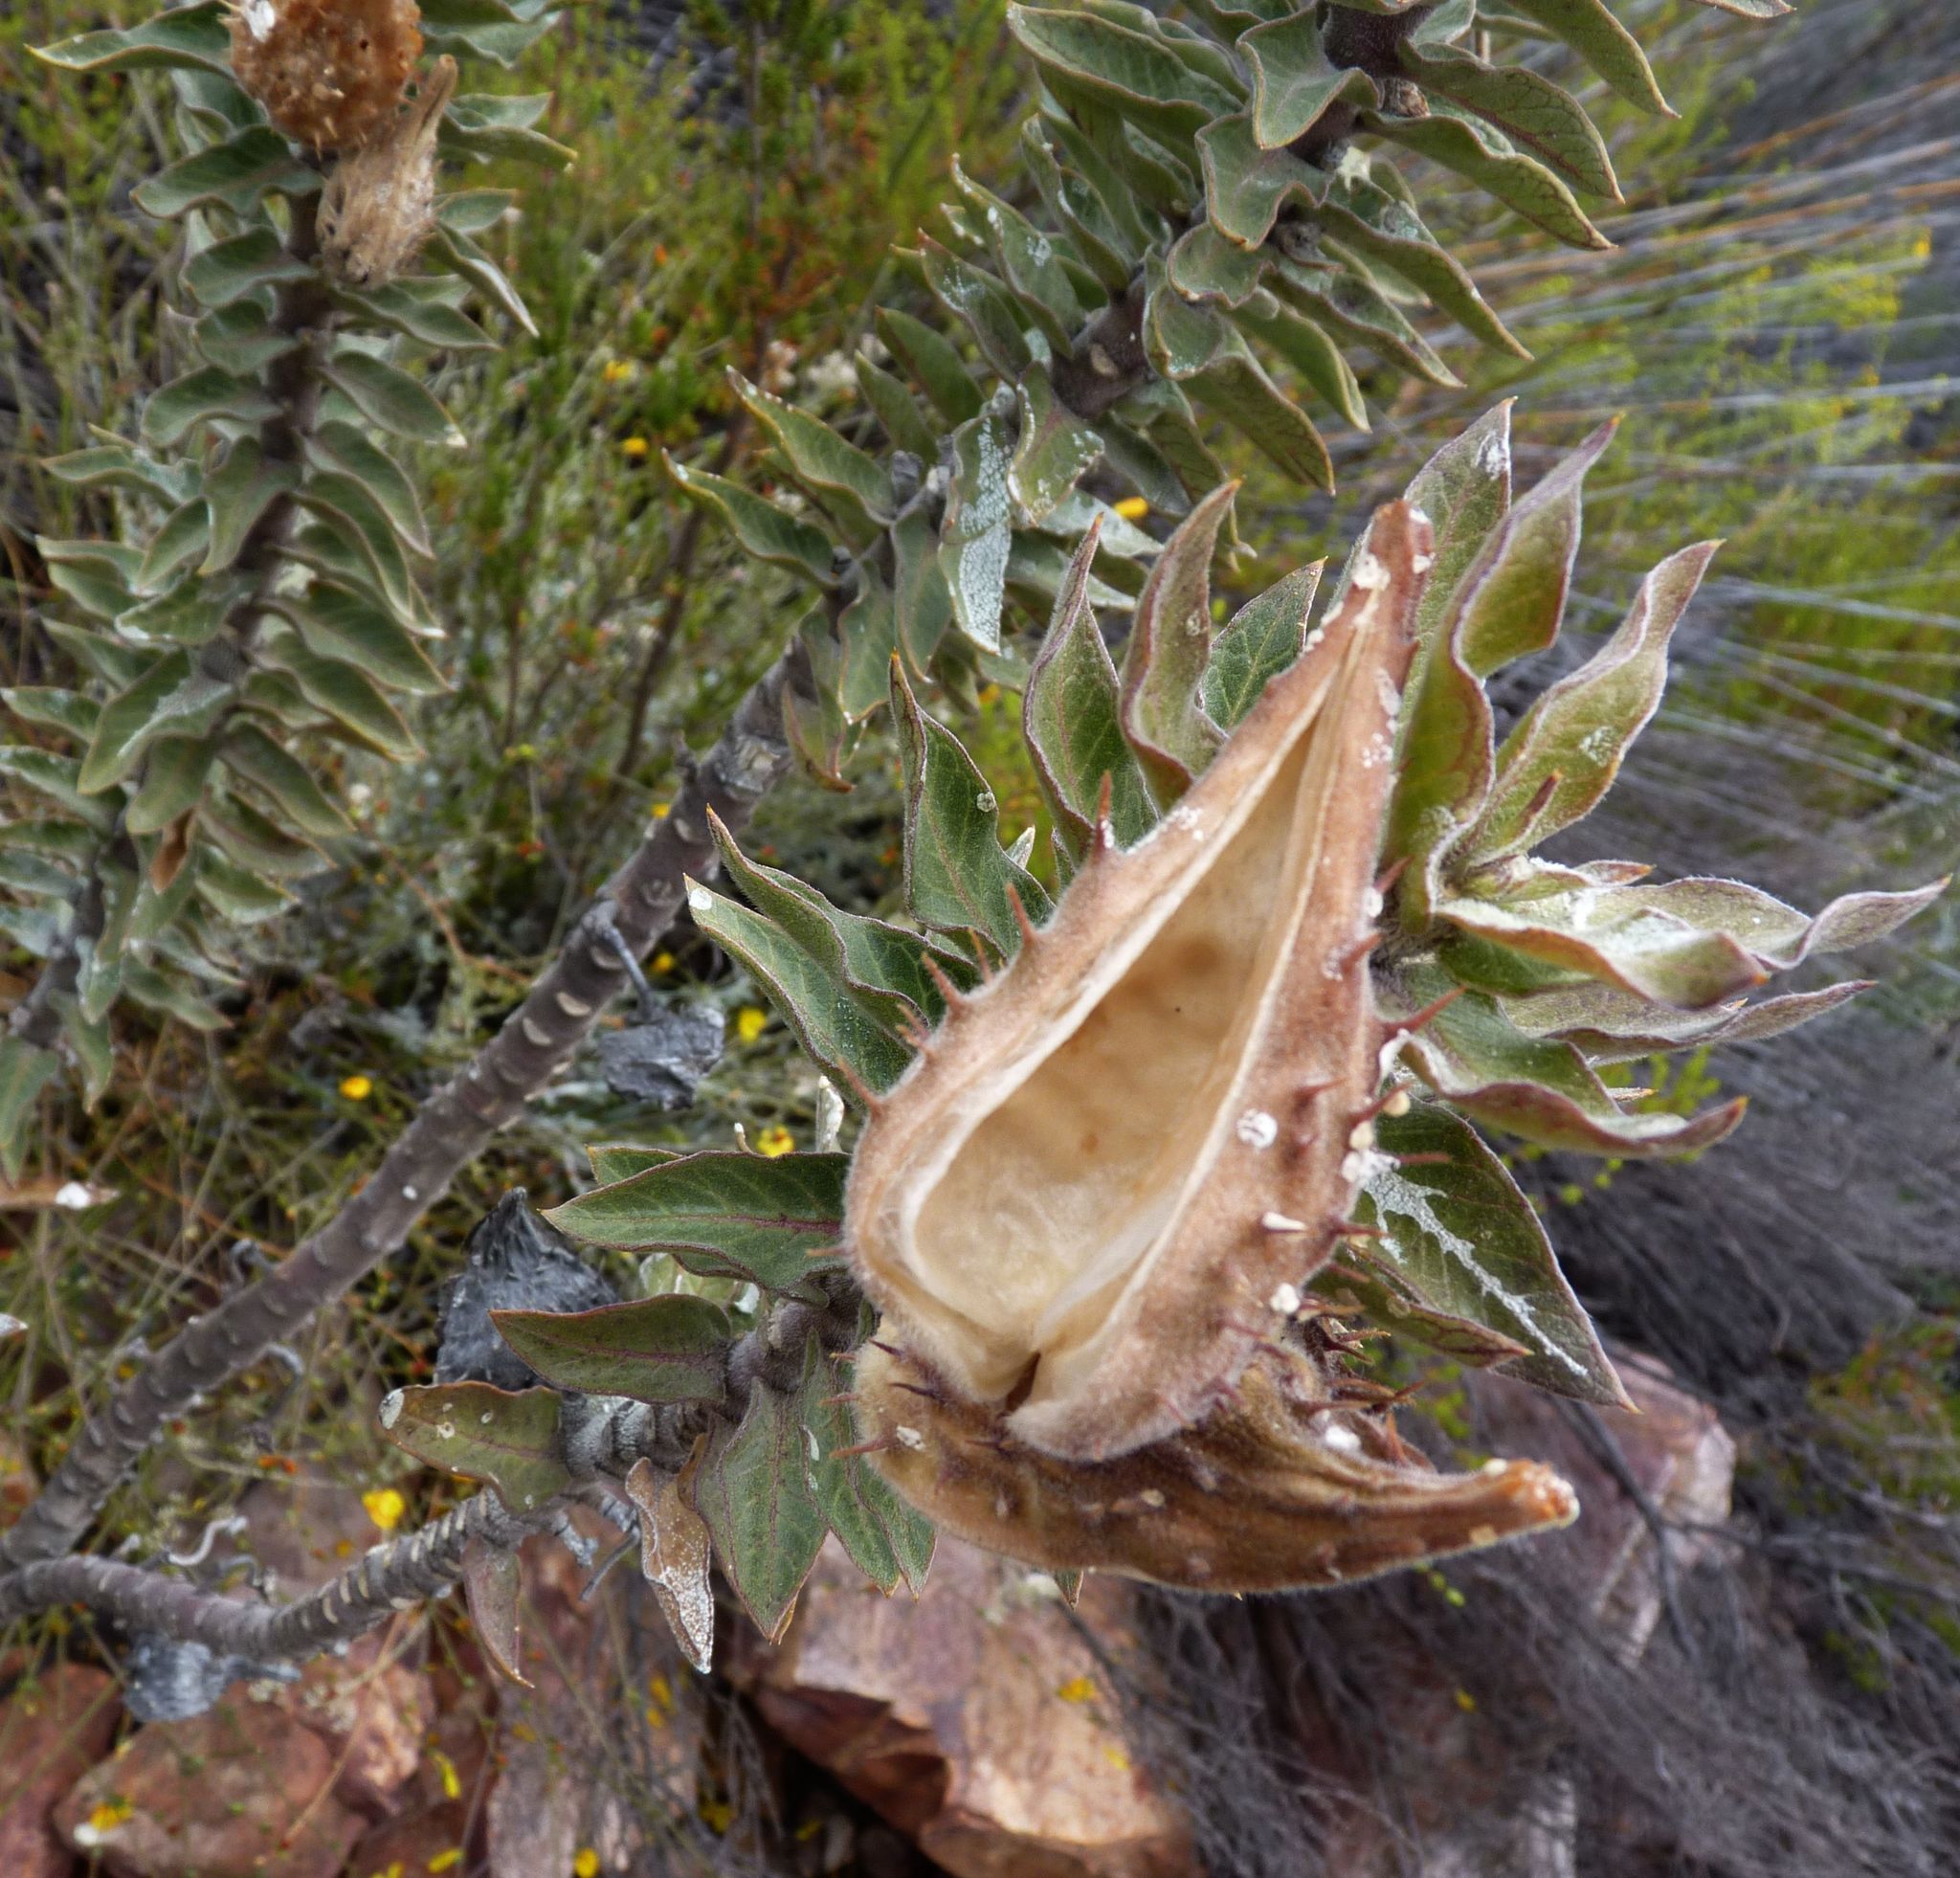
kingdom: Plantae
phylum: Tracheophyta
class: Magnoliopsida
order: Gentianales
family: Apocynaceae
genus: Gomphocarpus
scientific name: Gomphocarpus cancellatus
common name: Wild cotton
